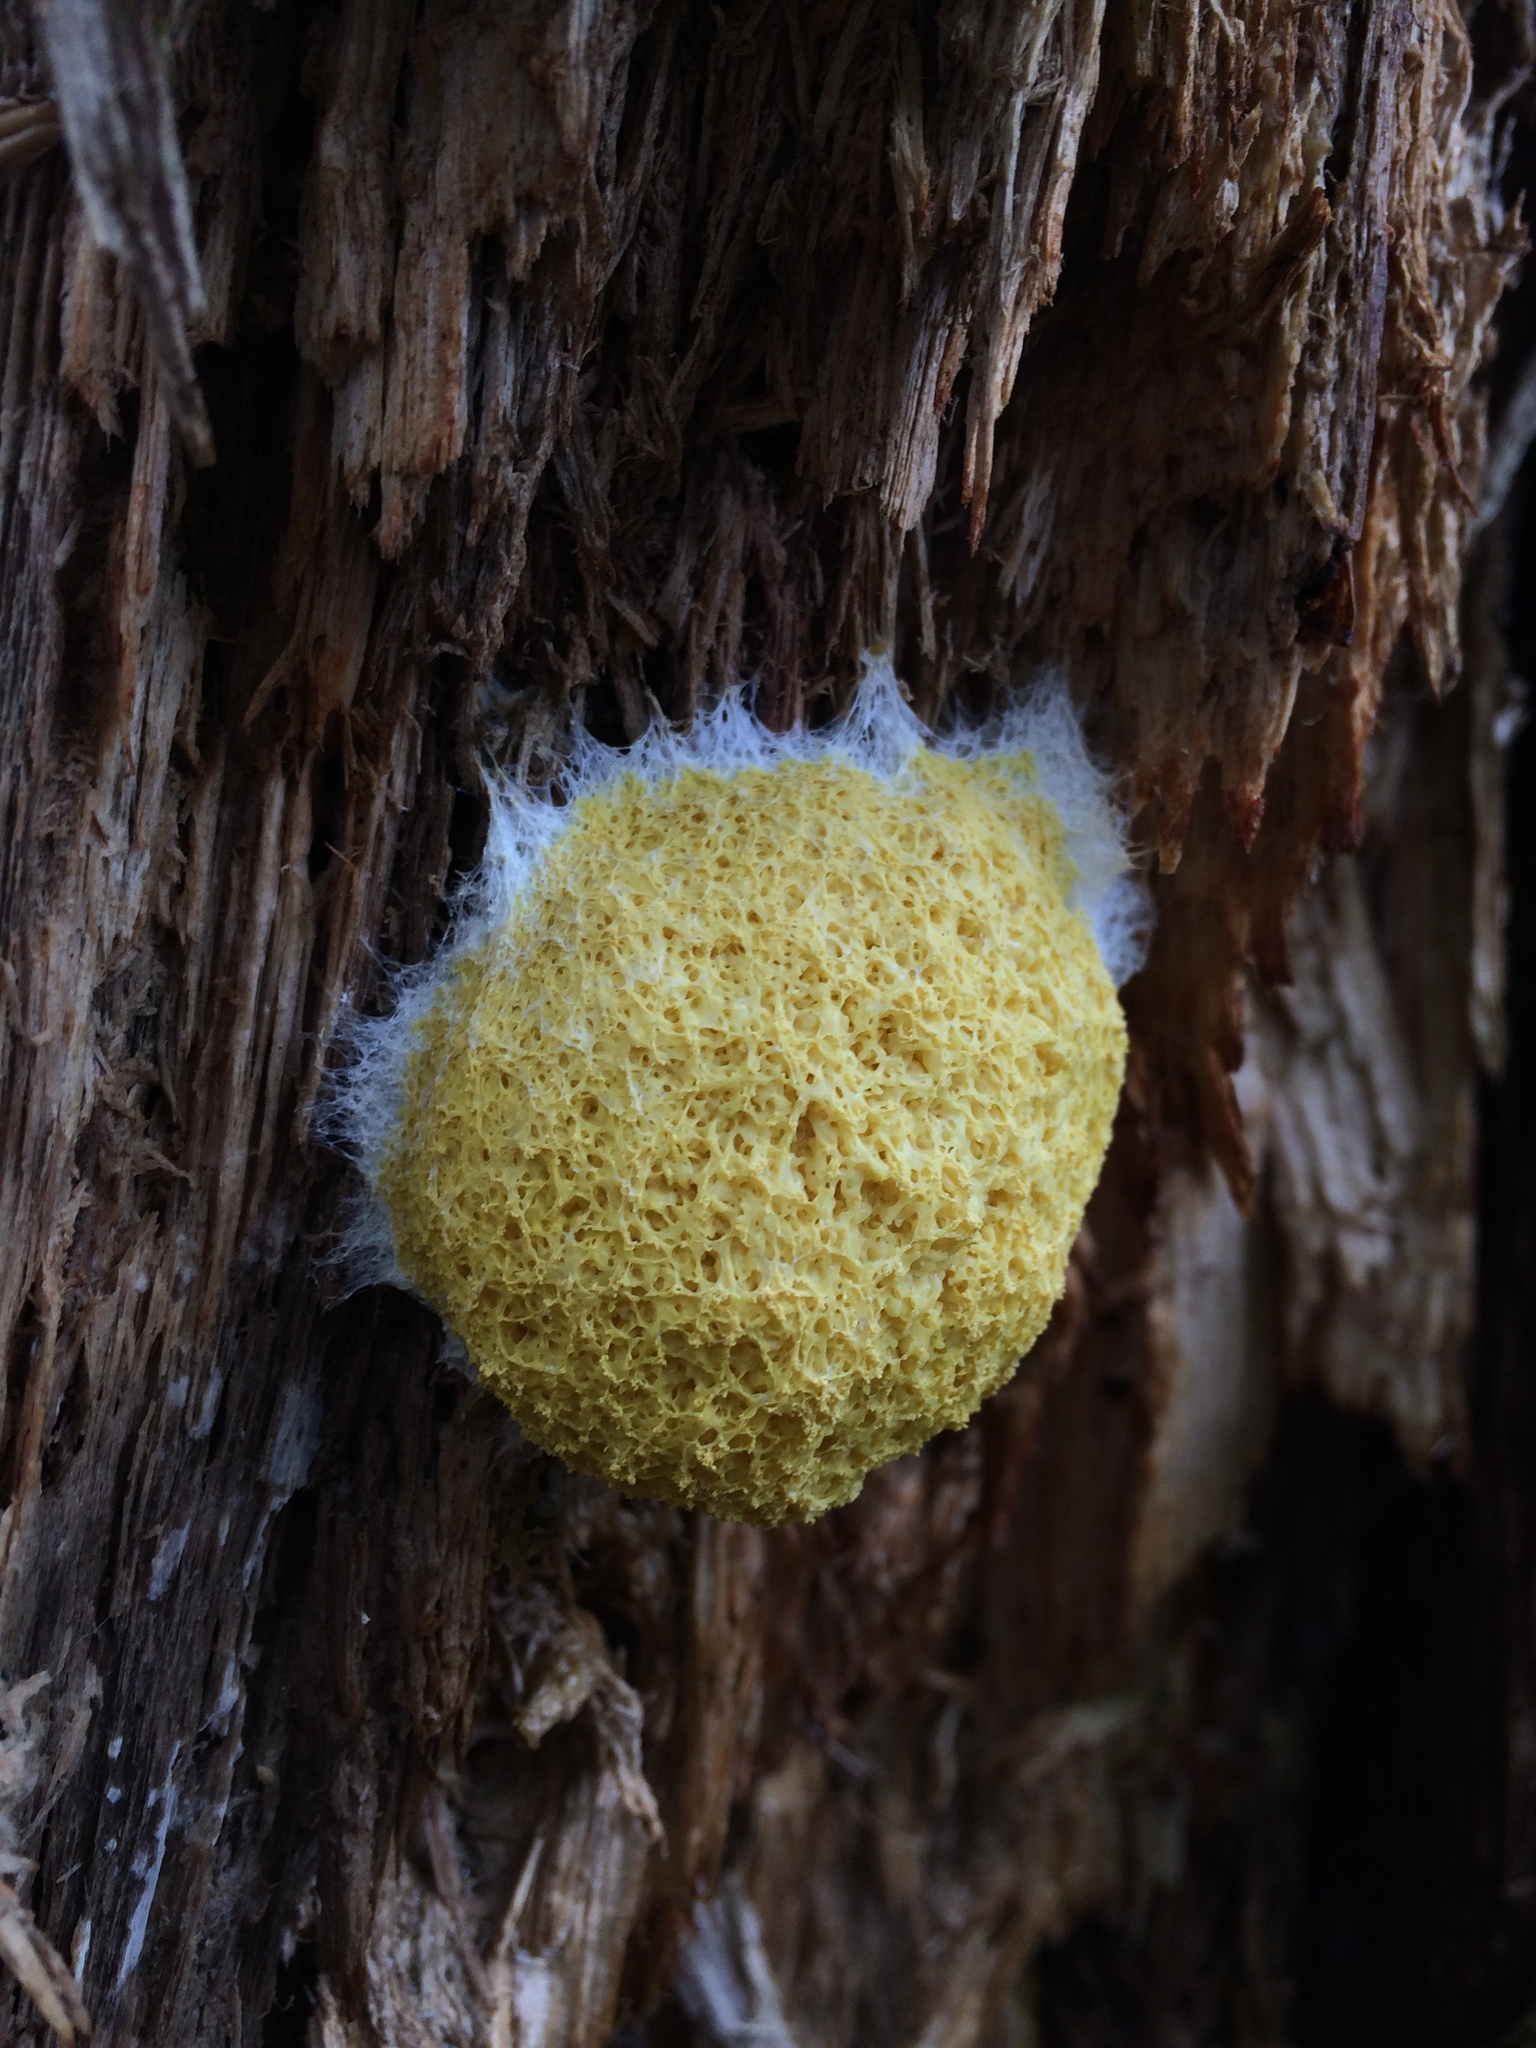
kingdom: Protozoa
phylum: Mycetozoa
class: Myxomycetes
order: Physarales
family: Physaraceae
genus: Fuligo
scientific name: Fuligo septica
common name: Dog vomit slime mold
